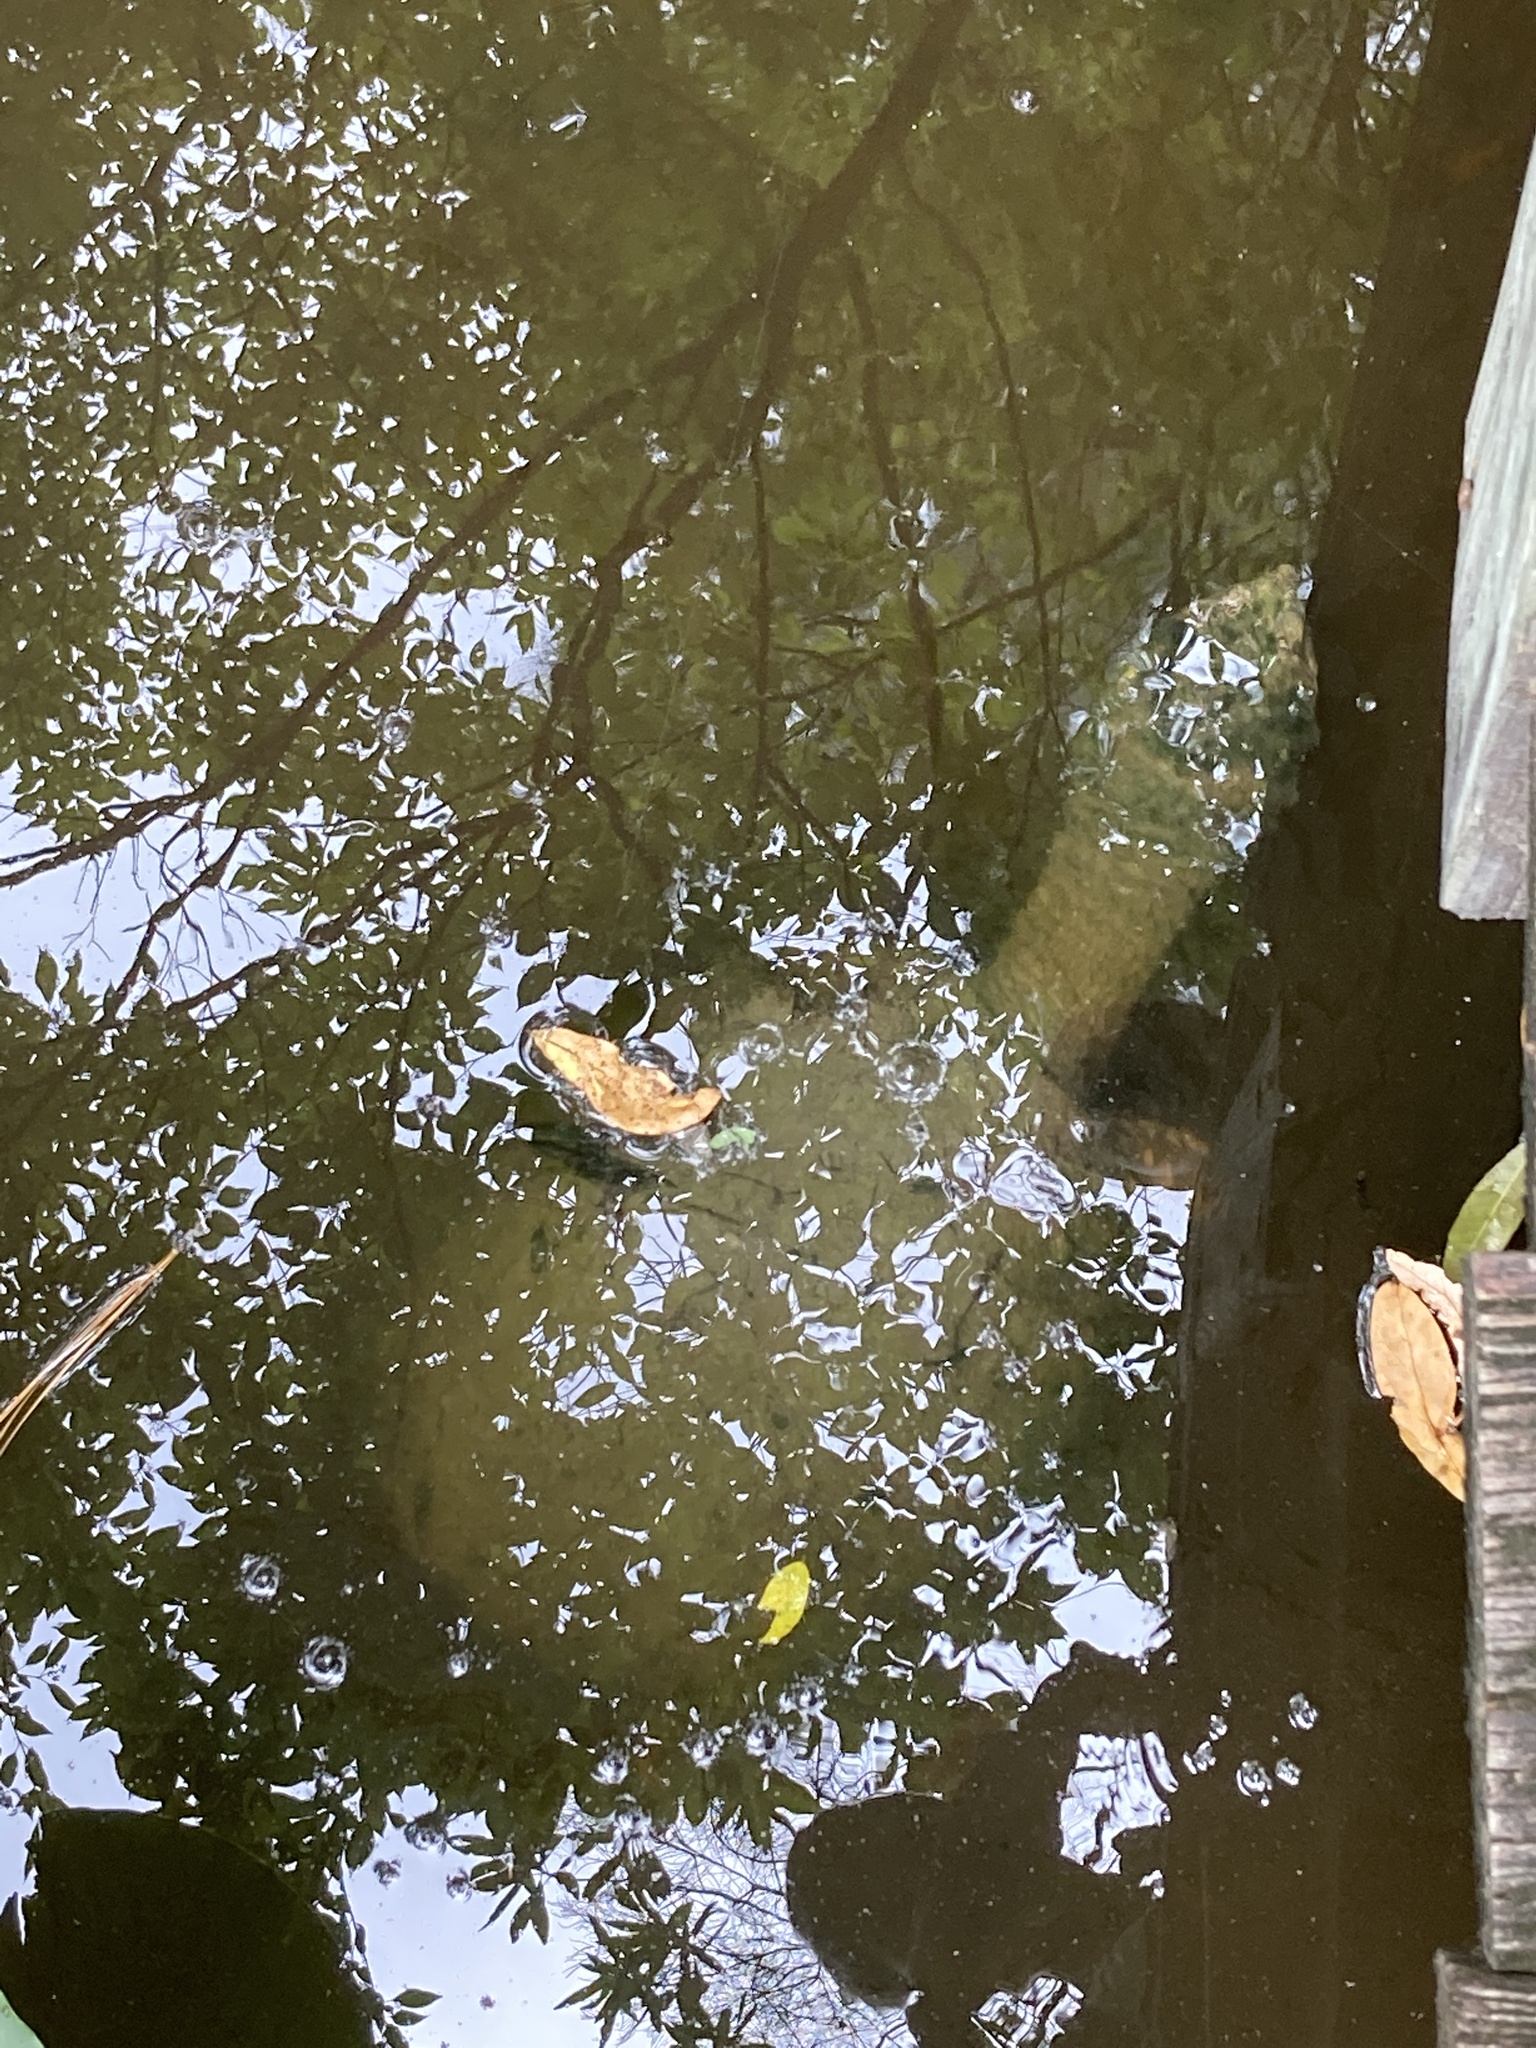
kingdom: Animalia
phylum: Chordata
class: Testudines
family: Chelydridae
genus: Chelydra
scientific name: Chelydra serpentina
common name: Common snapping turtle
